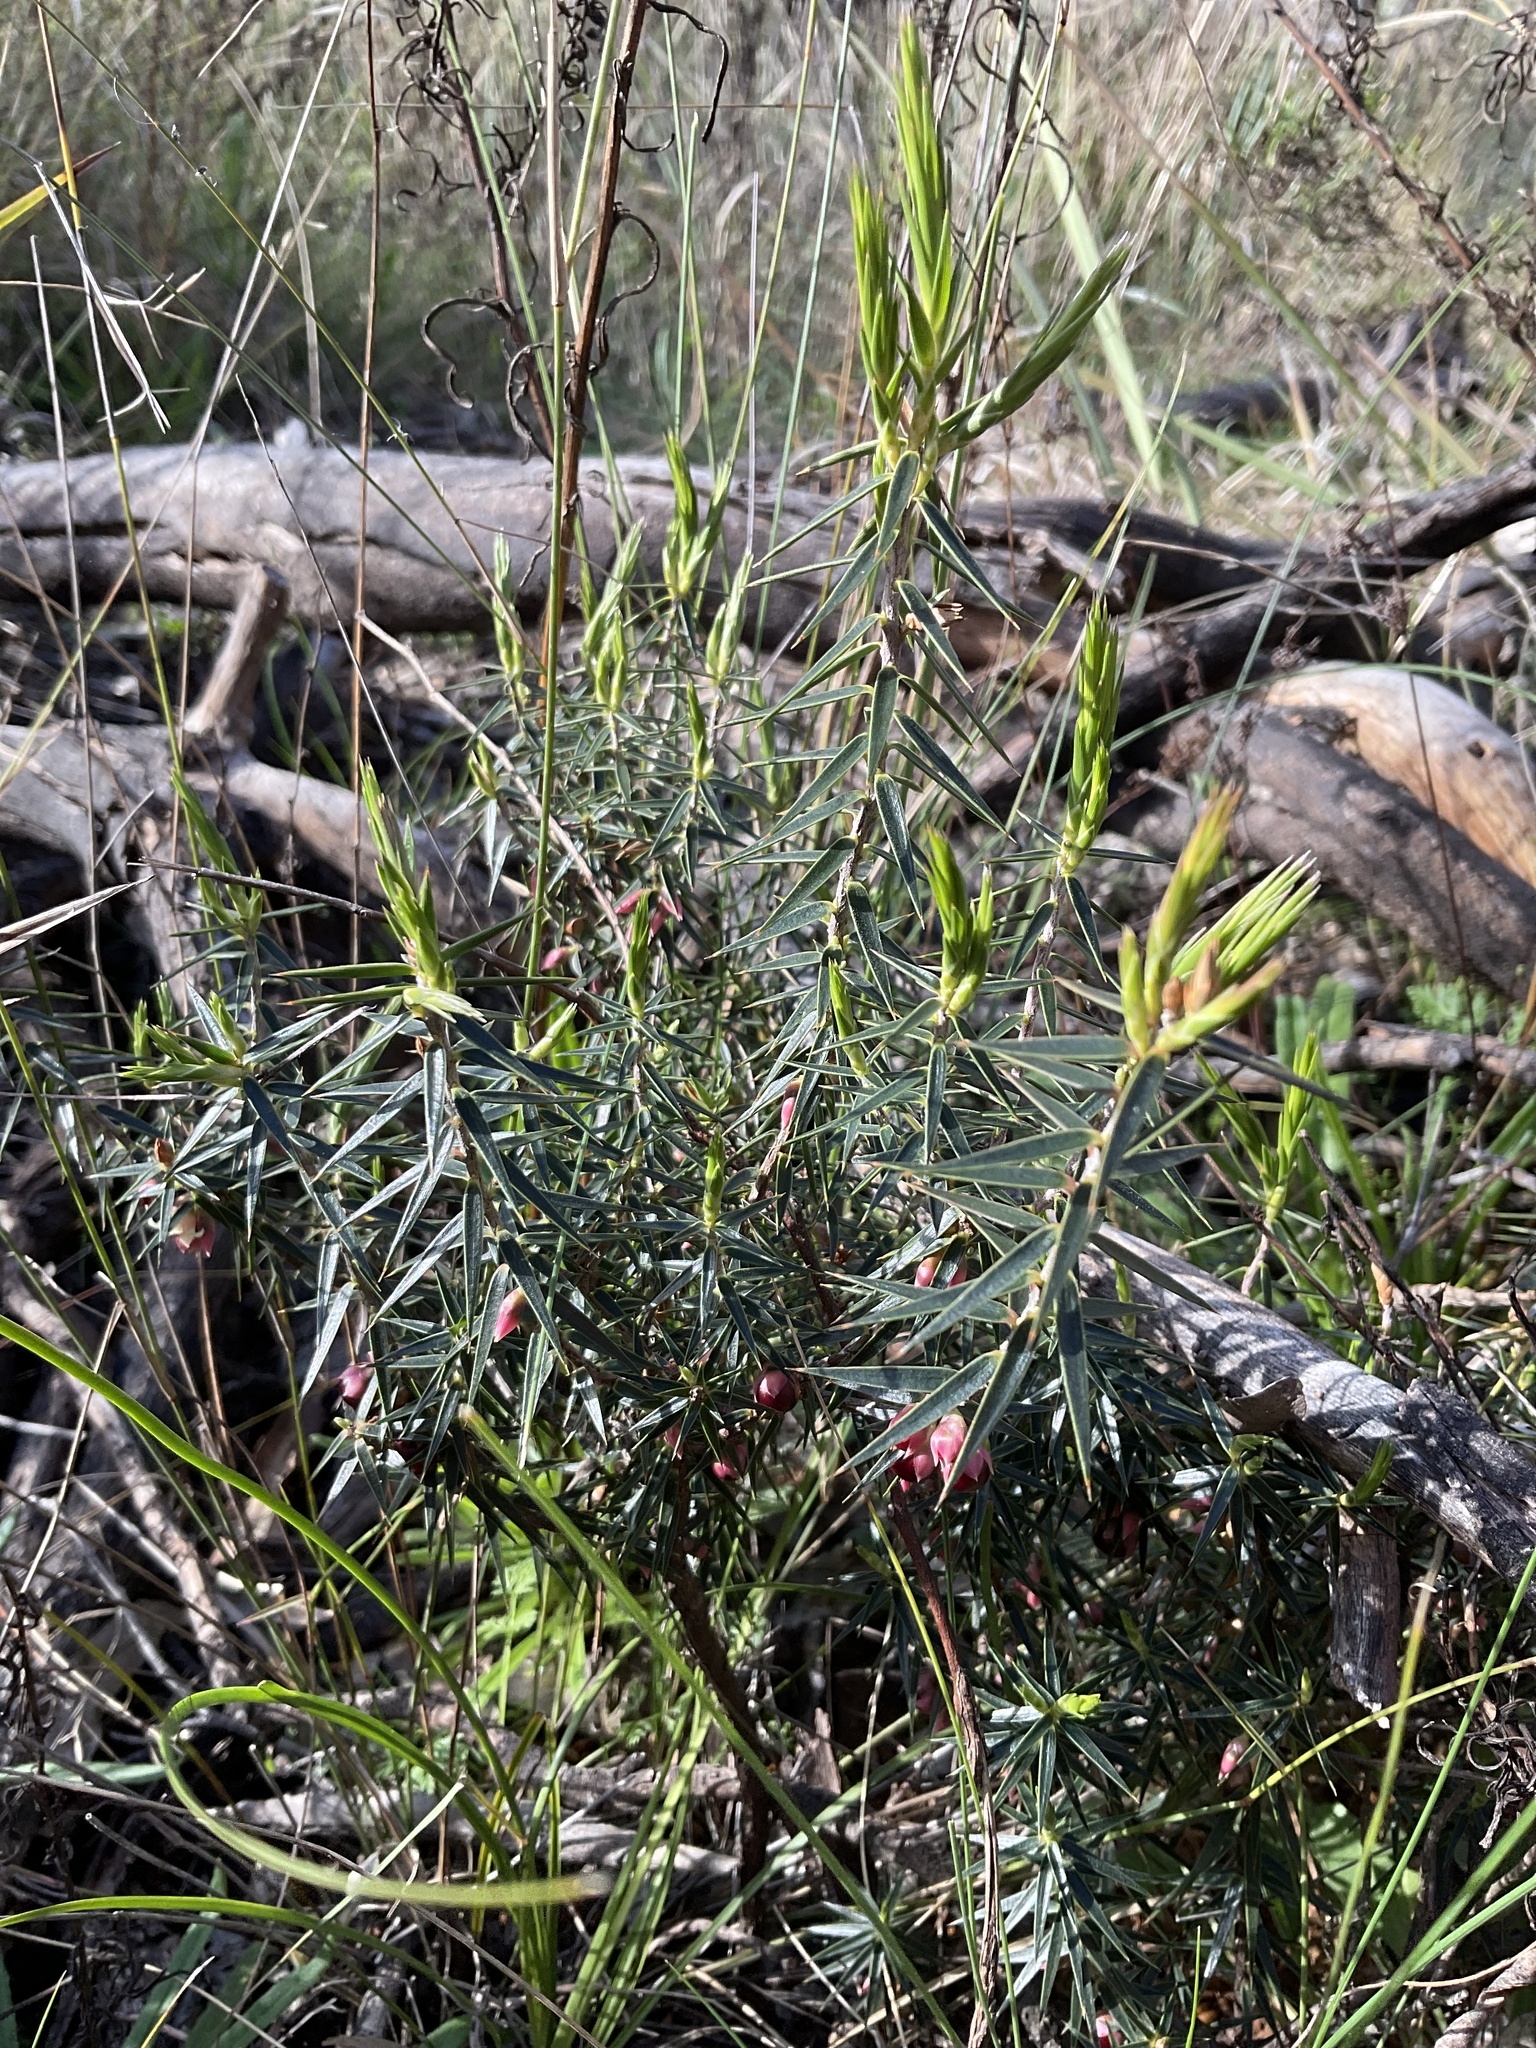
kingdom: Plantae
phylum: Tracheophyta
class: Magnoliopsida
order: Ericales
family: Ericaceae
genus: Melichrus
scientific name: Melichrus erubescens
